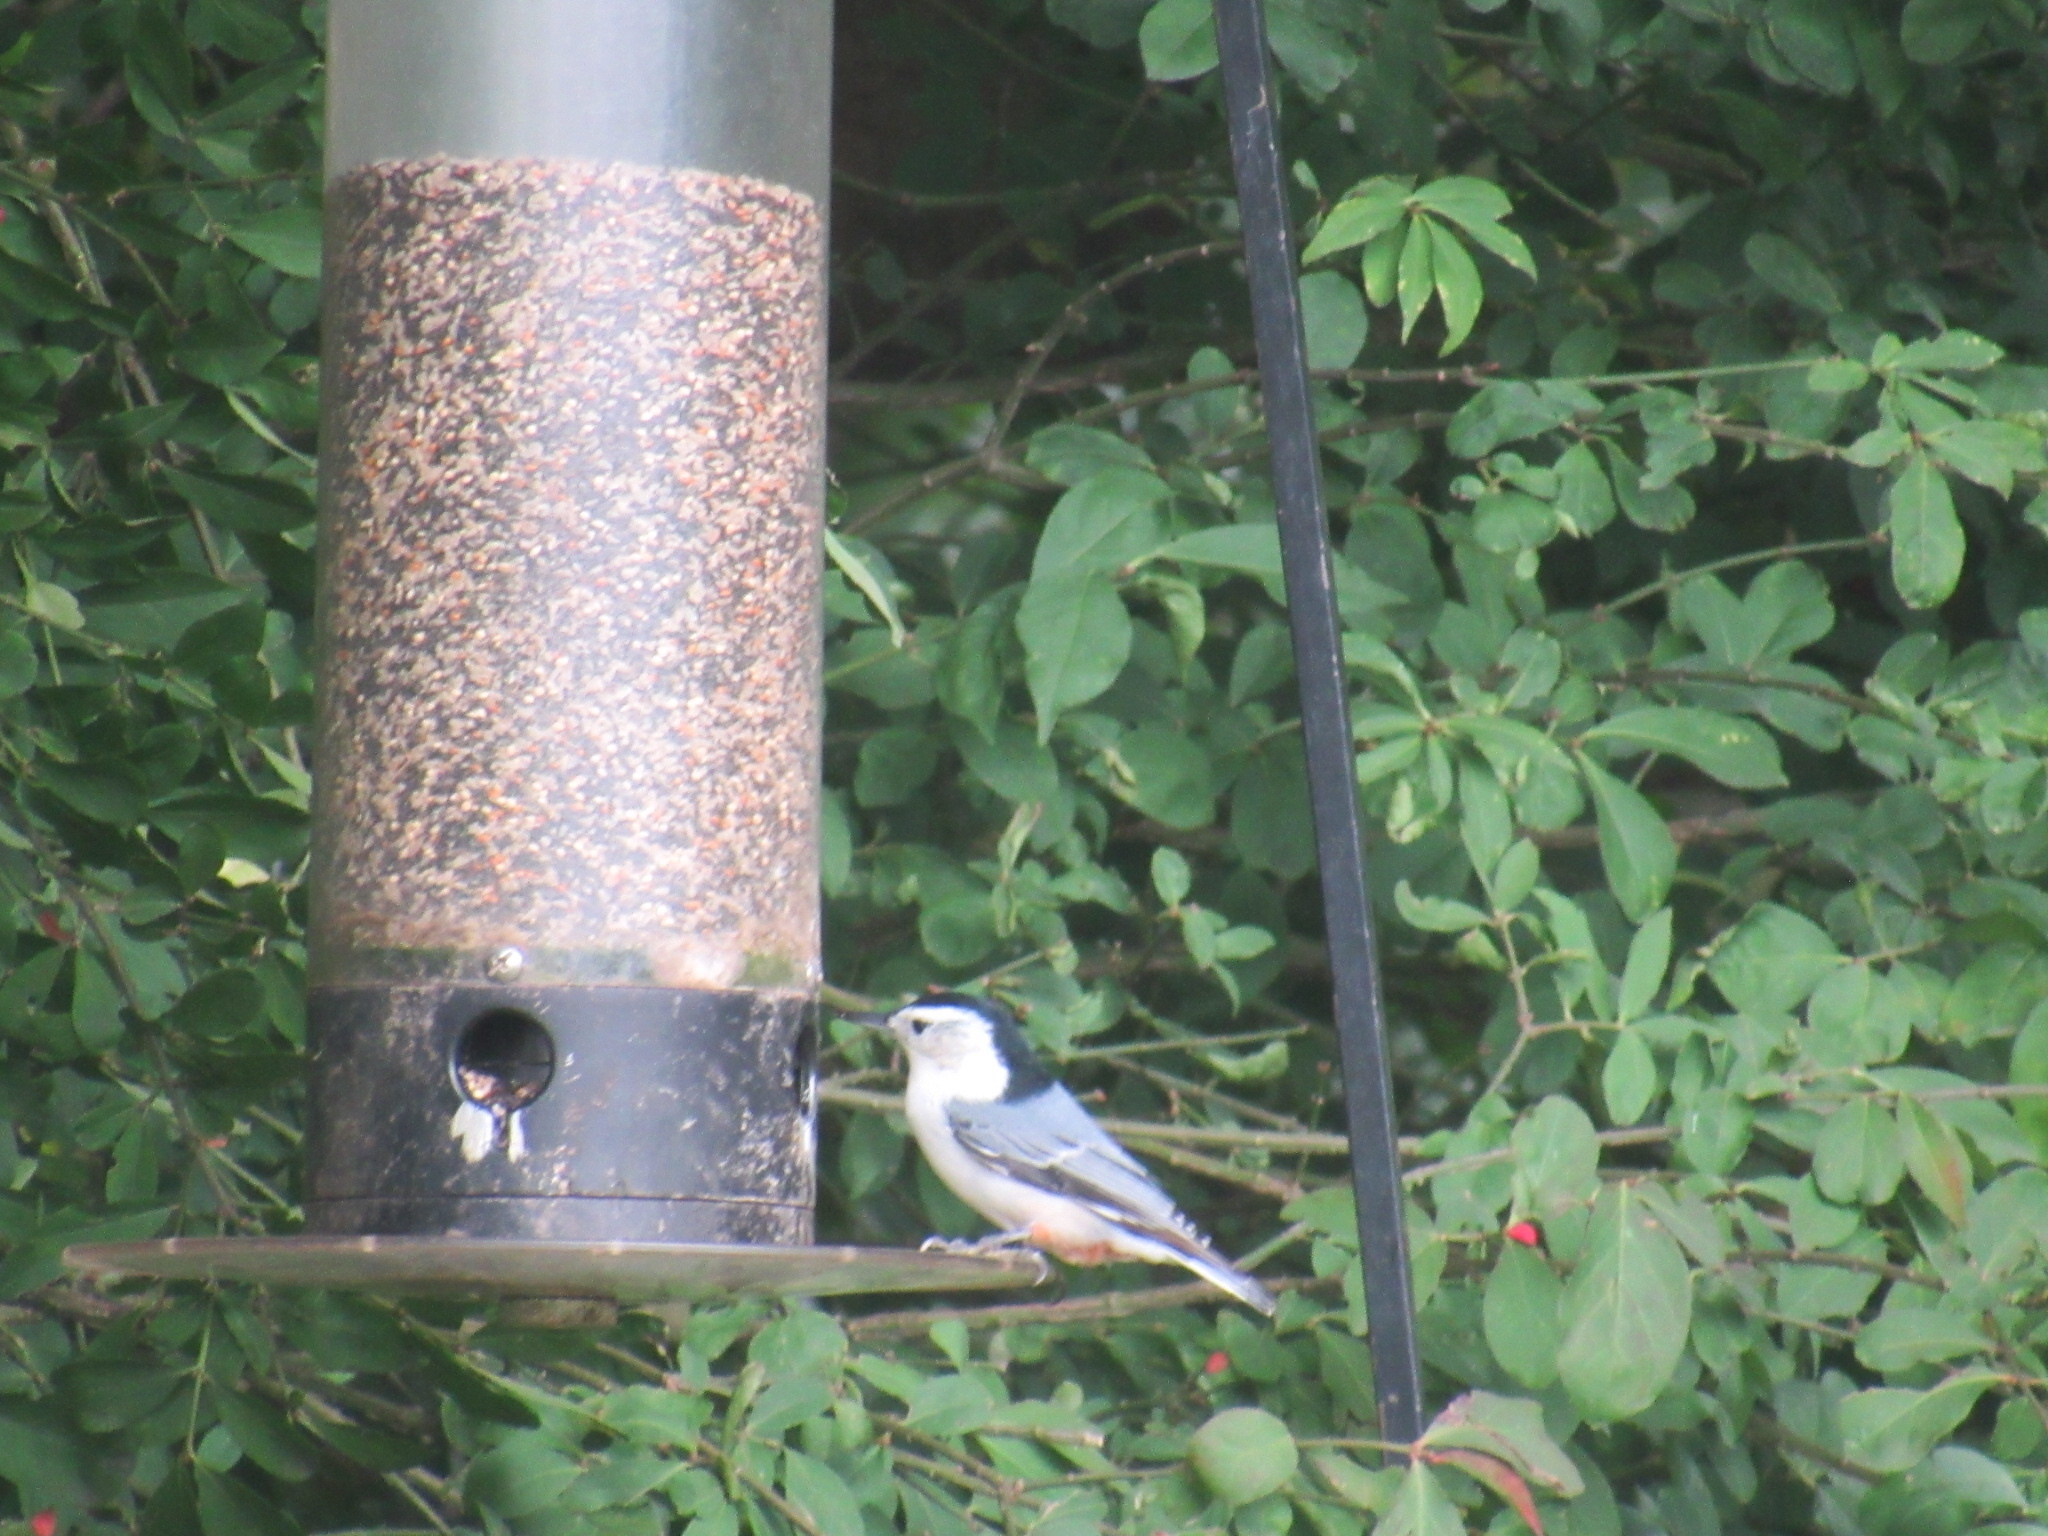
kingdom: Animalia
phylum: Chordata
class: Aves
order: Passeriformes
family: Sittidae
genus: Sitta
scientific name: Sitta carolinensis
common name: White-breasted nuthatch
